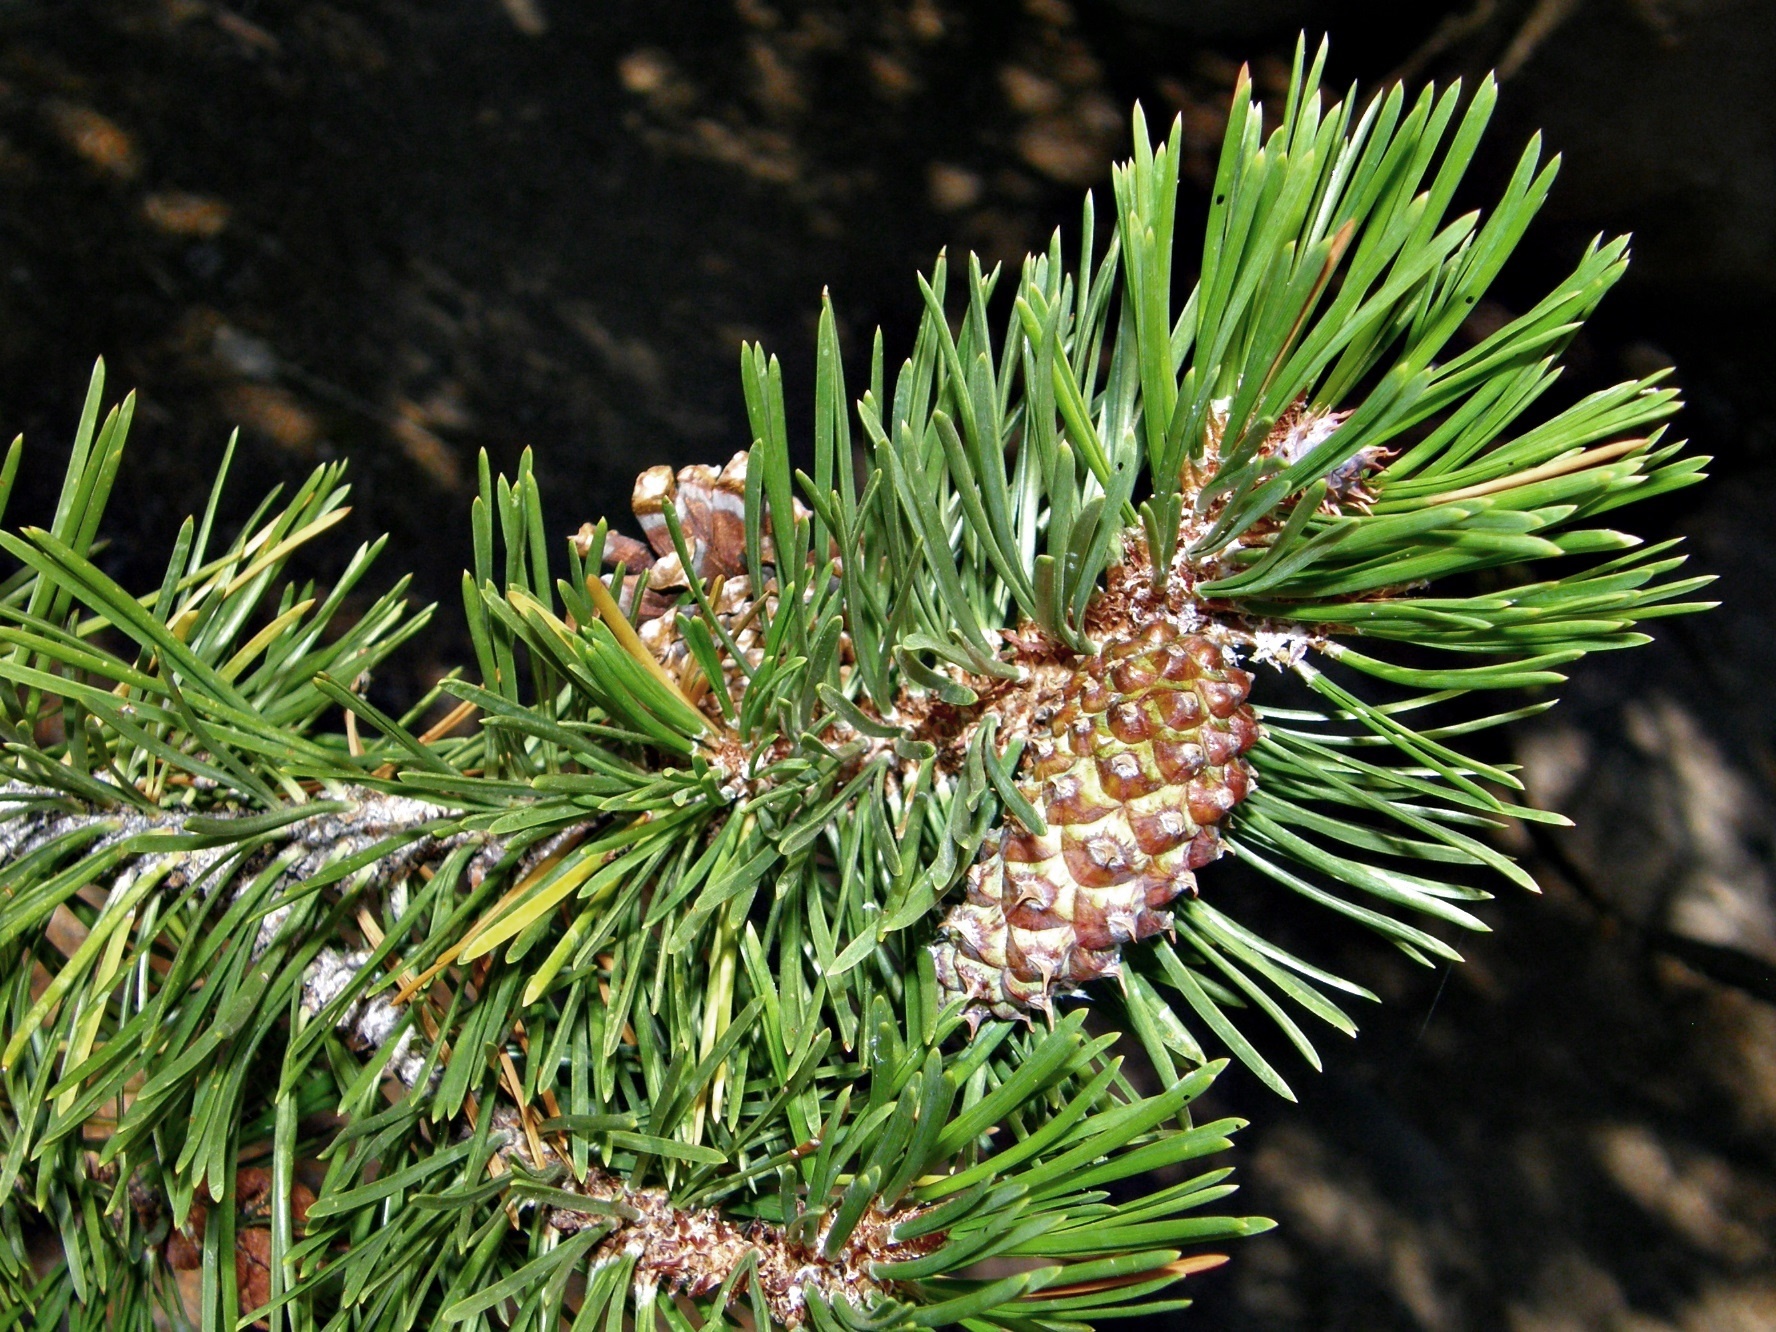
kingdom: Plantae
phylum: Tracheophyta
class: Pinopsida
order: Pinales
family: Pinaceae
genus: Pinus
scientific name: Pinus contorta
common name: Lodgepole pine
